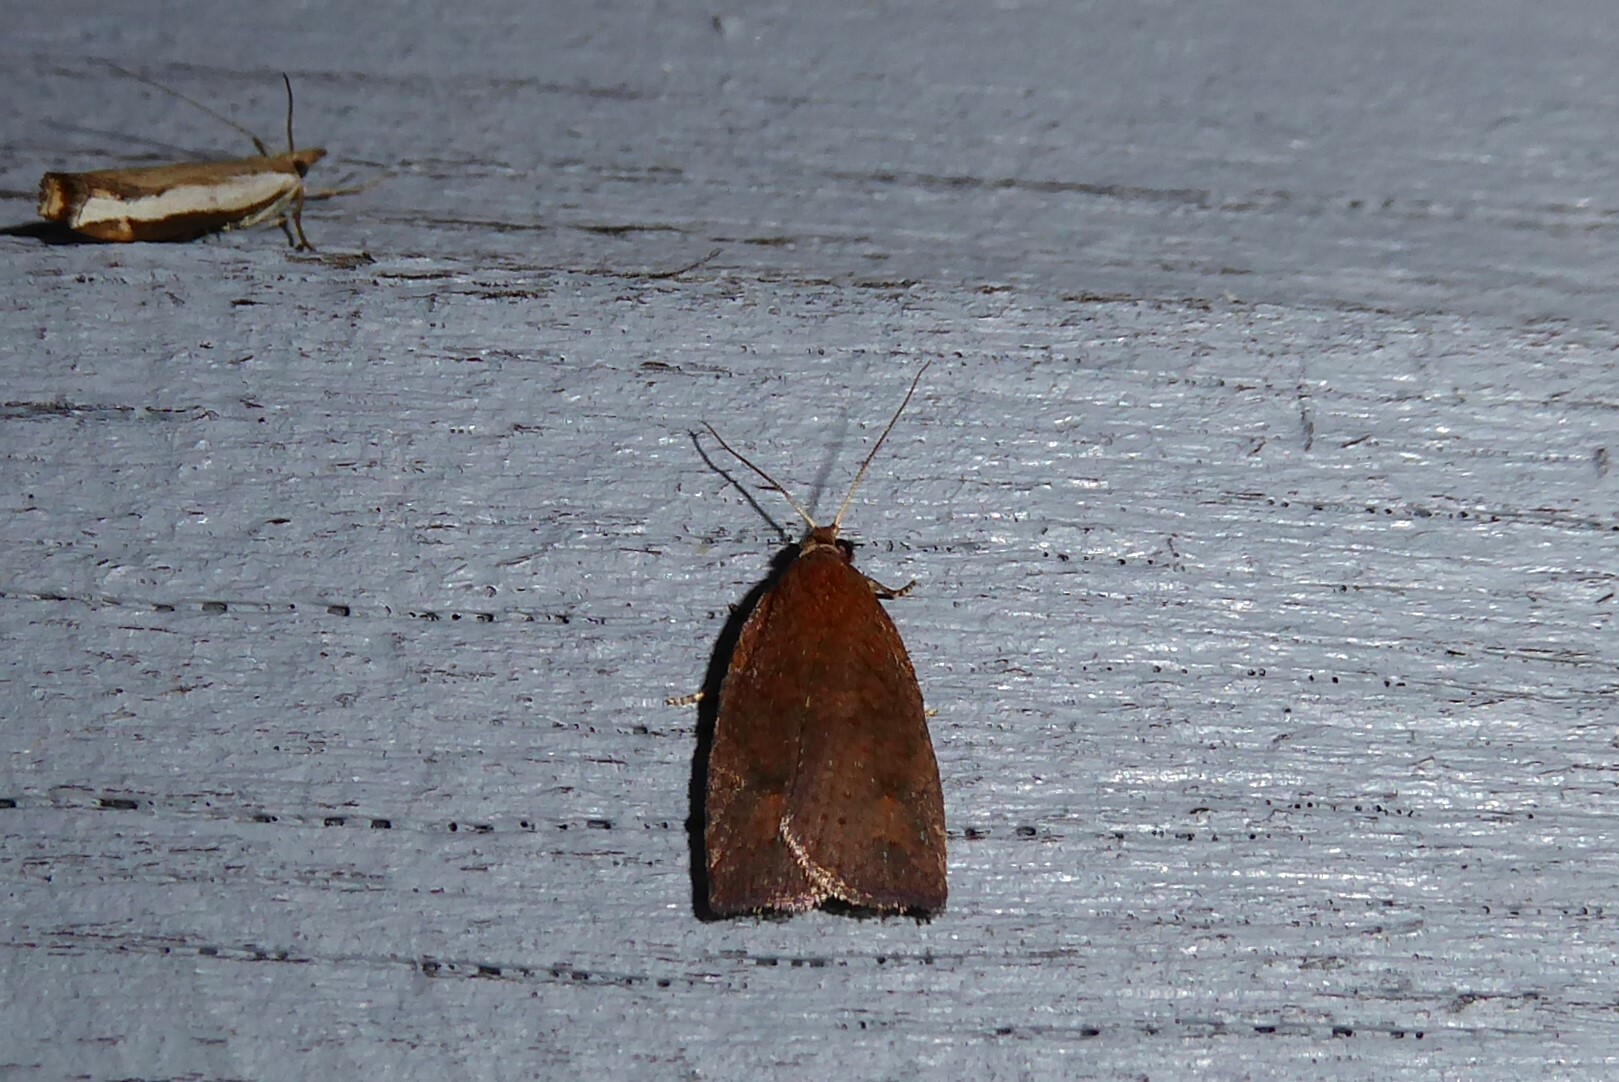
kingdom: Animalia
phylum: Arthropoda
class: Insecta
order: Lepidoptera
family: Tortricidae
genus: Planotortrix
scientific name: Planotortrix notophaea
